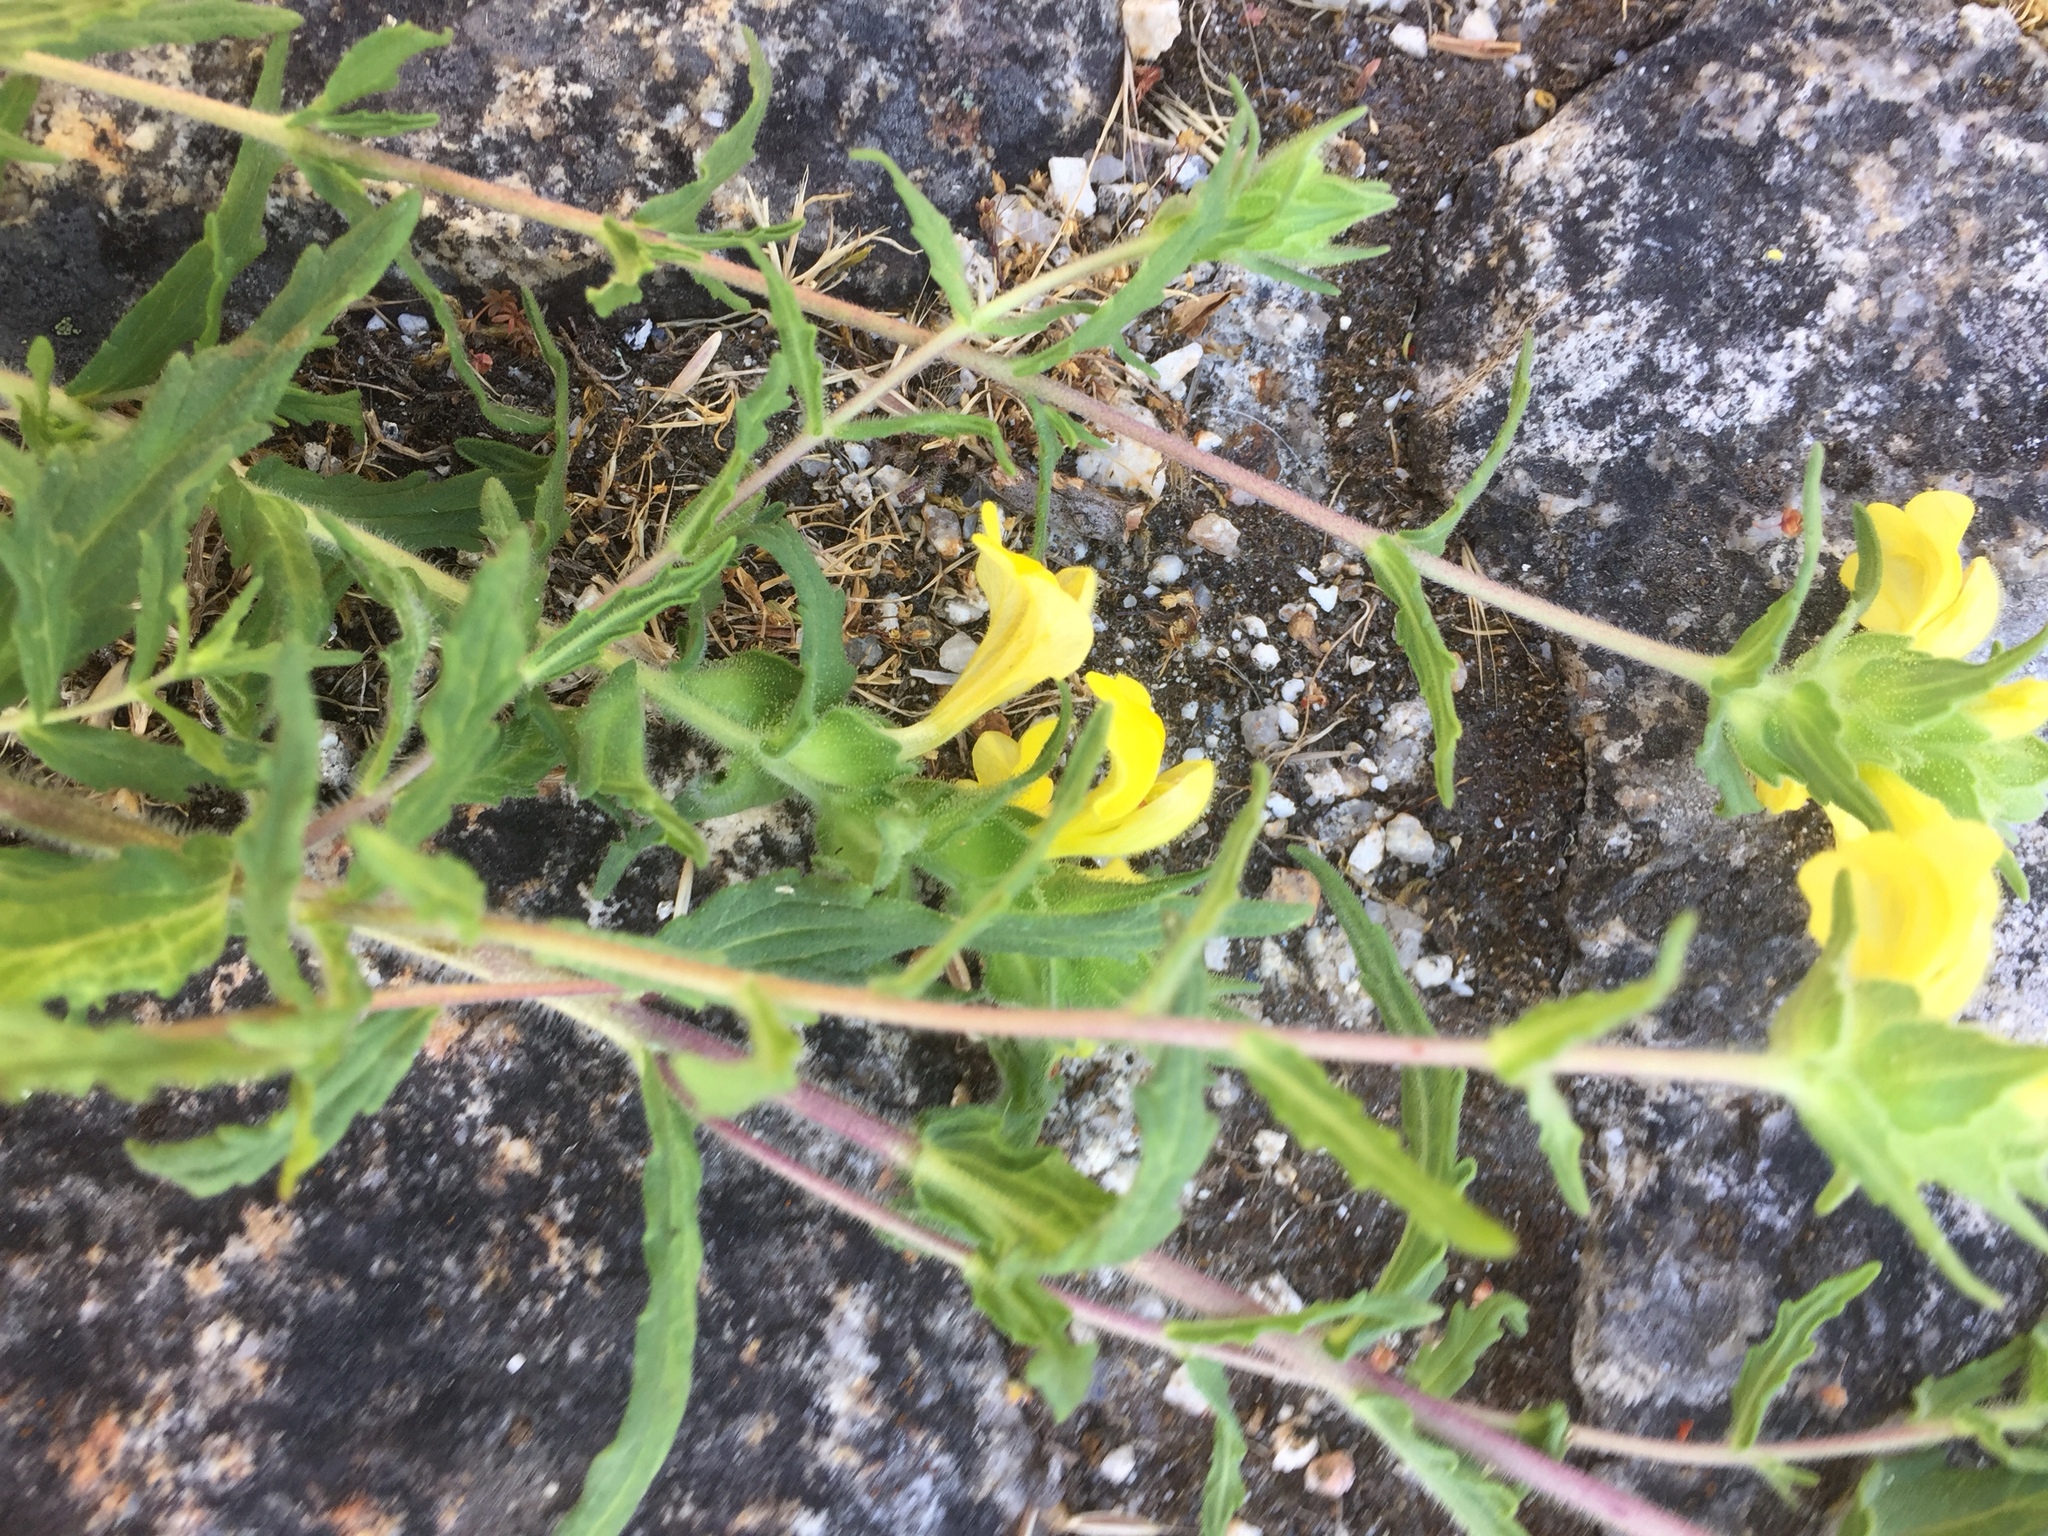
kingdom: Plantae
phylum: Tracheophyta
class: Magnoliopsida
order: Lamiales
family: Orobanchaceae
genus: Bellardia
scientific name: Bellardia viscosa
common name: Sticky parentucellia
